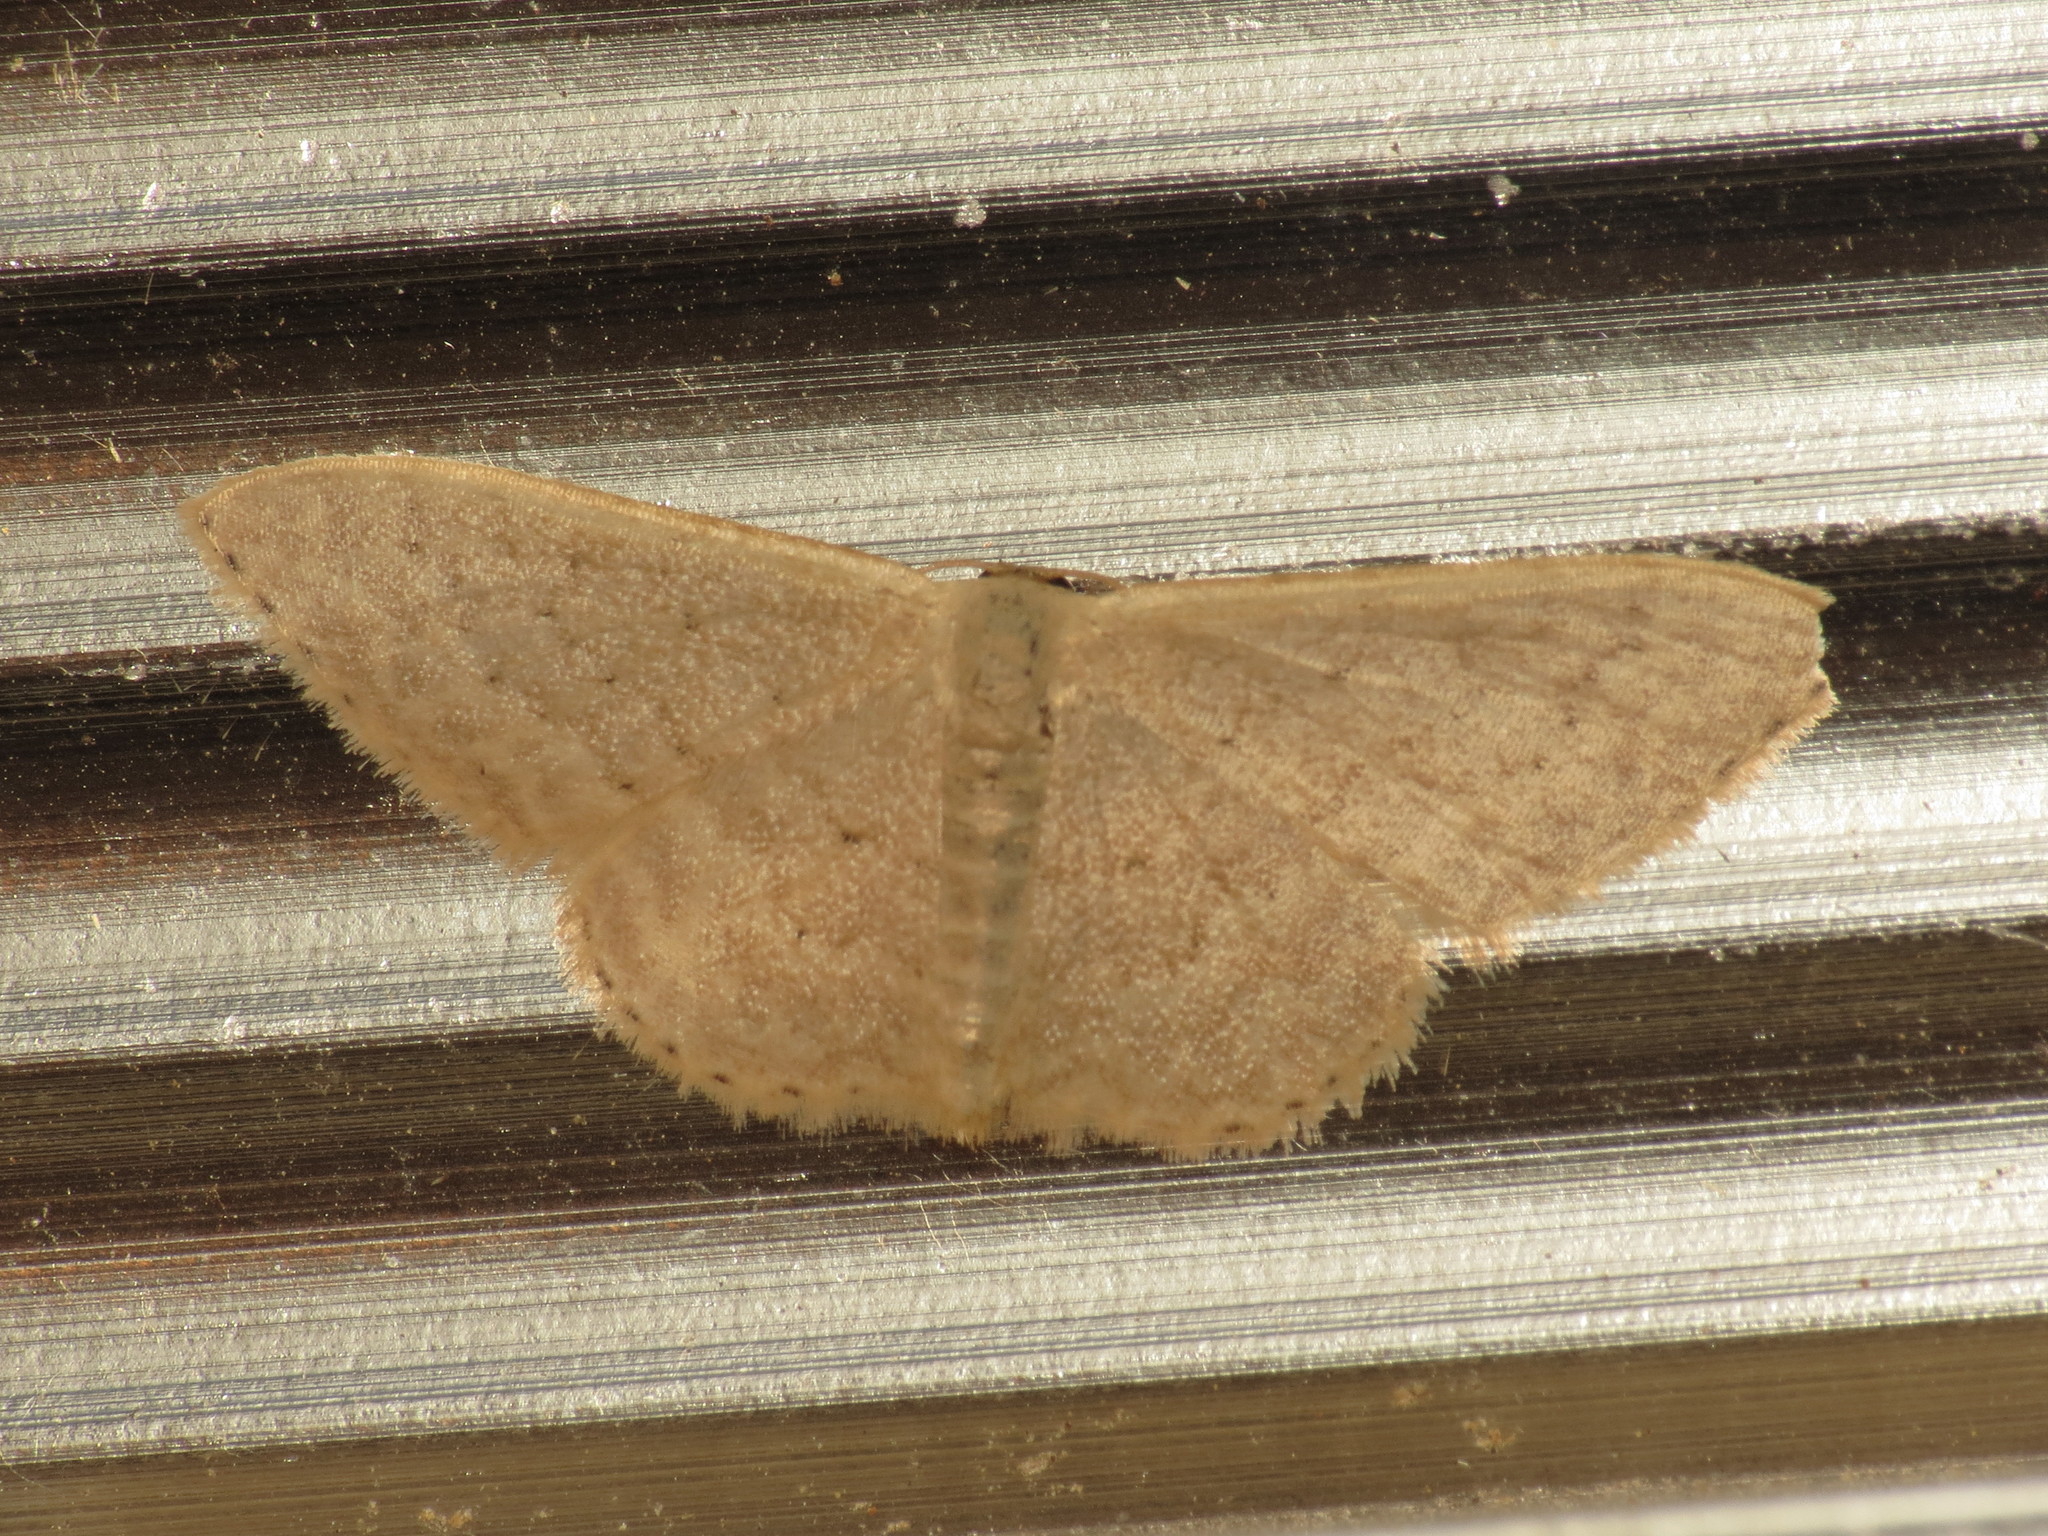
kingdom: Animalia
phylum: Arthropoda
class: Insecta
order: Lepidoptera
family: Geometridae
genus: Idaea
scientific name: Idaea philocosma
